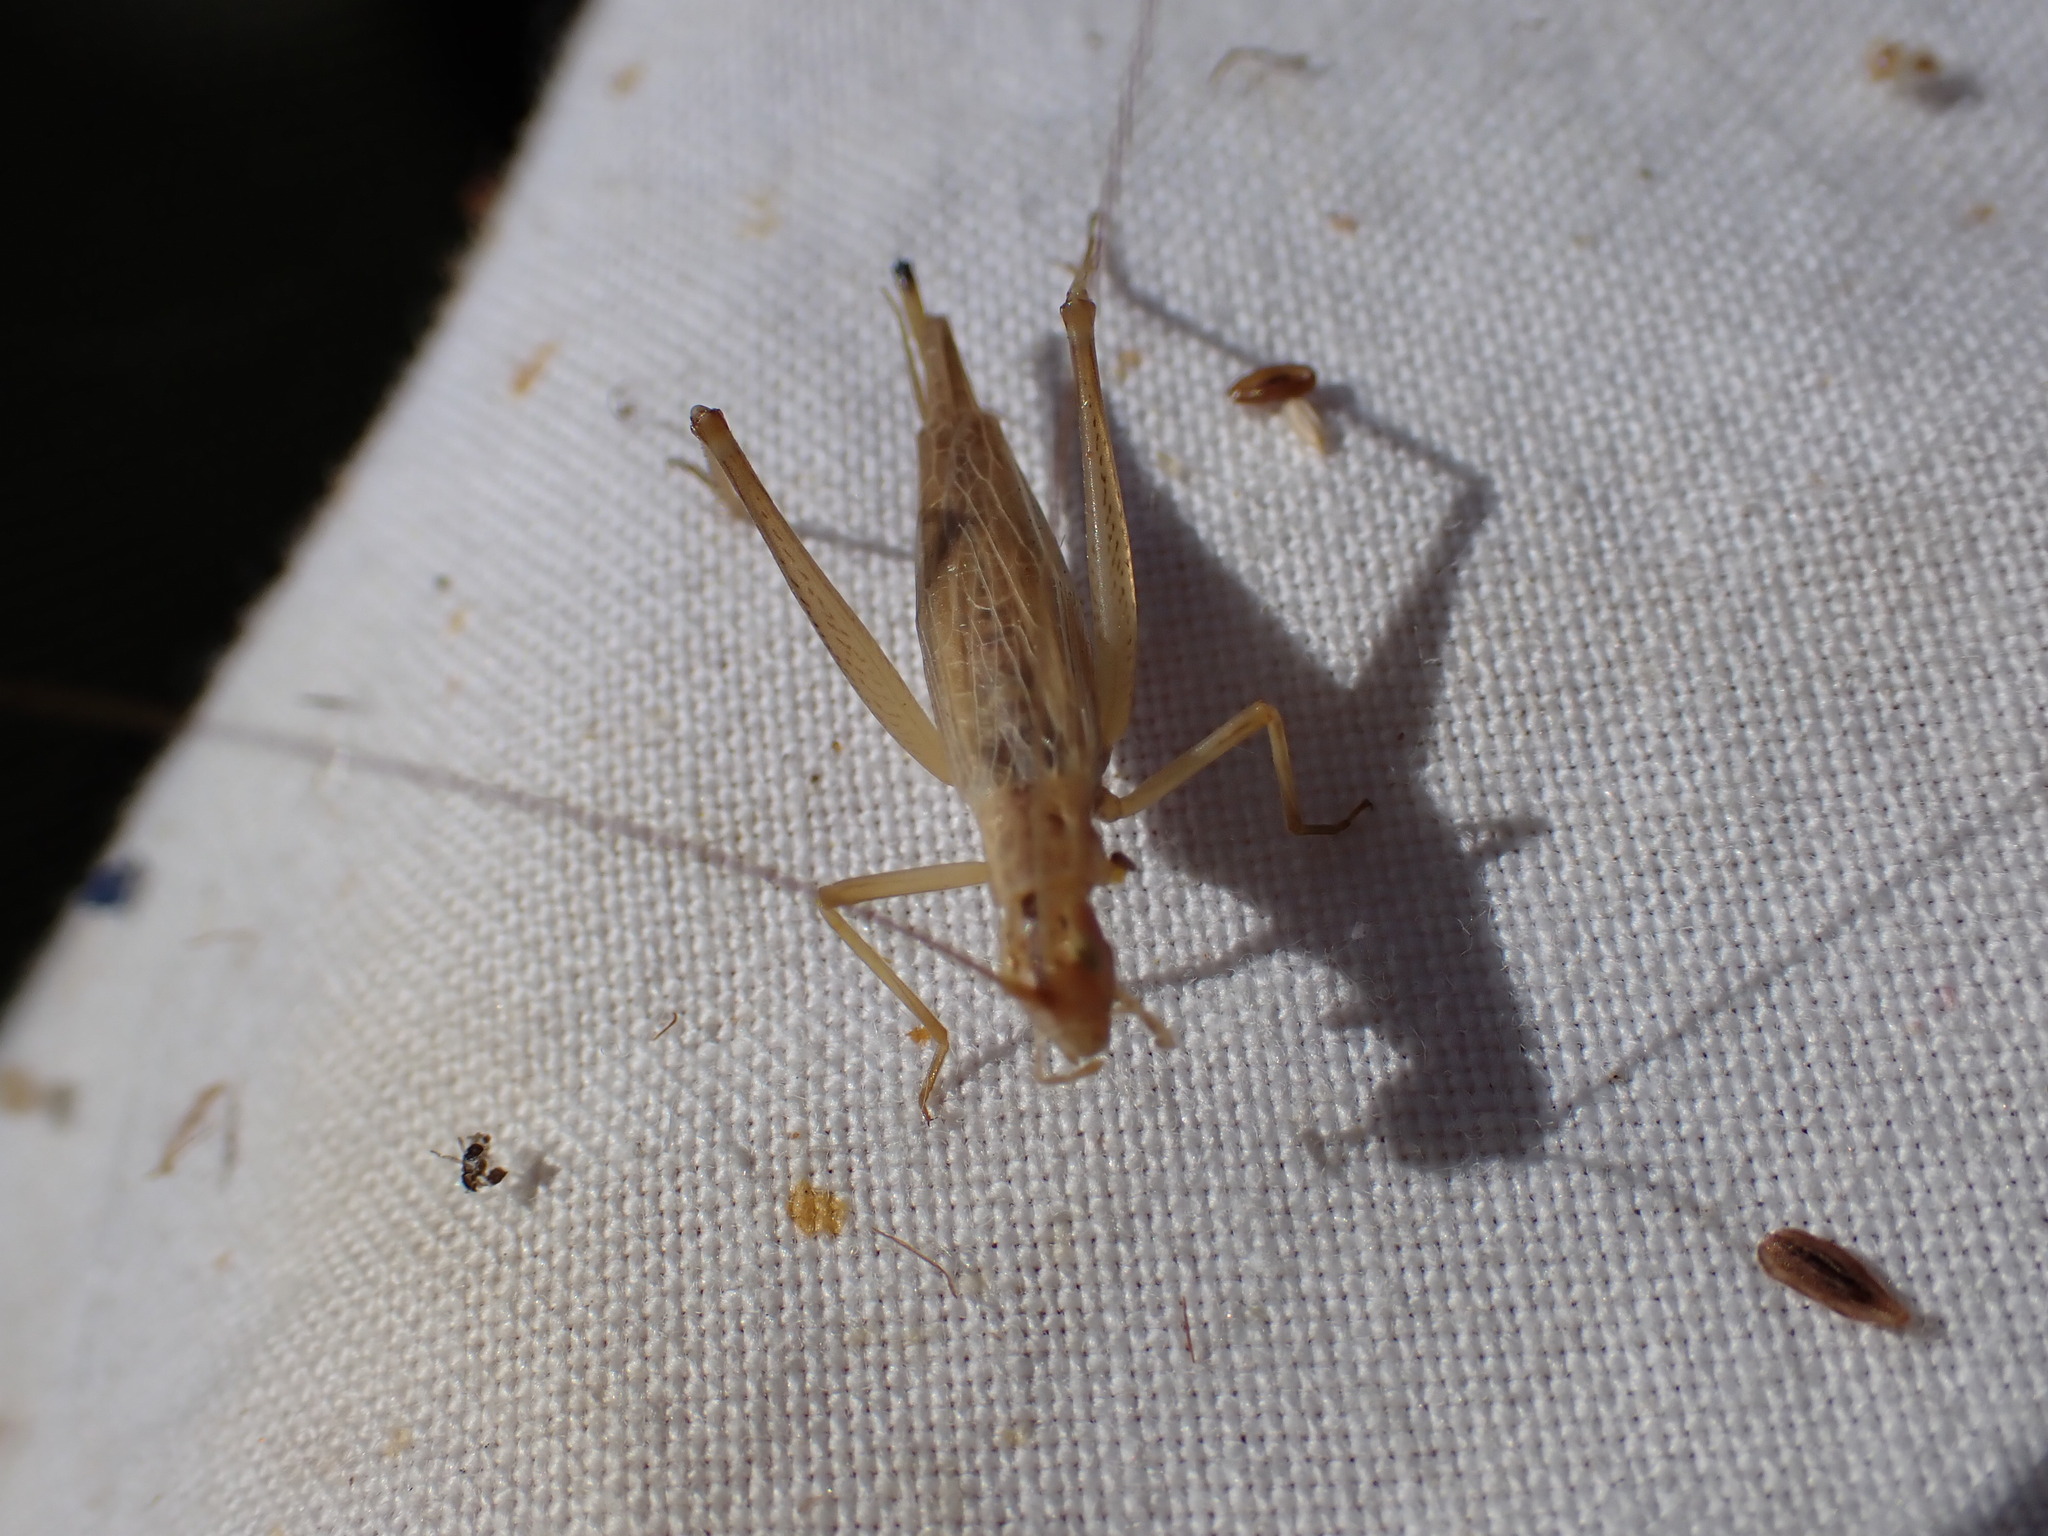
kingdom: Animalia
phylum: Arthropoda
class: Insecta
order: Orthoptera
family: Gryllidae
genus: Oecanthus
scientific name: Oecanthus pellucens
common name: Tree-cricket
